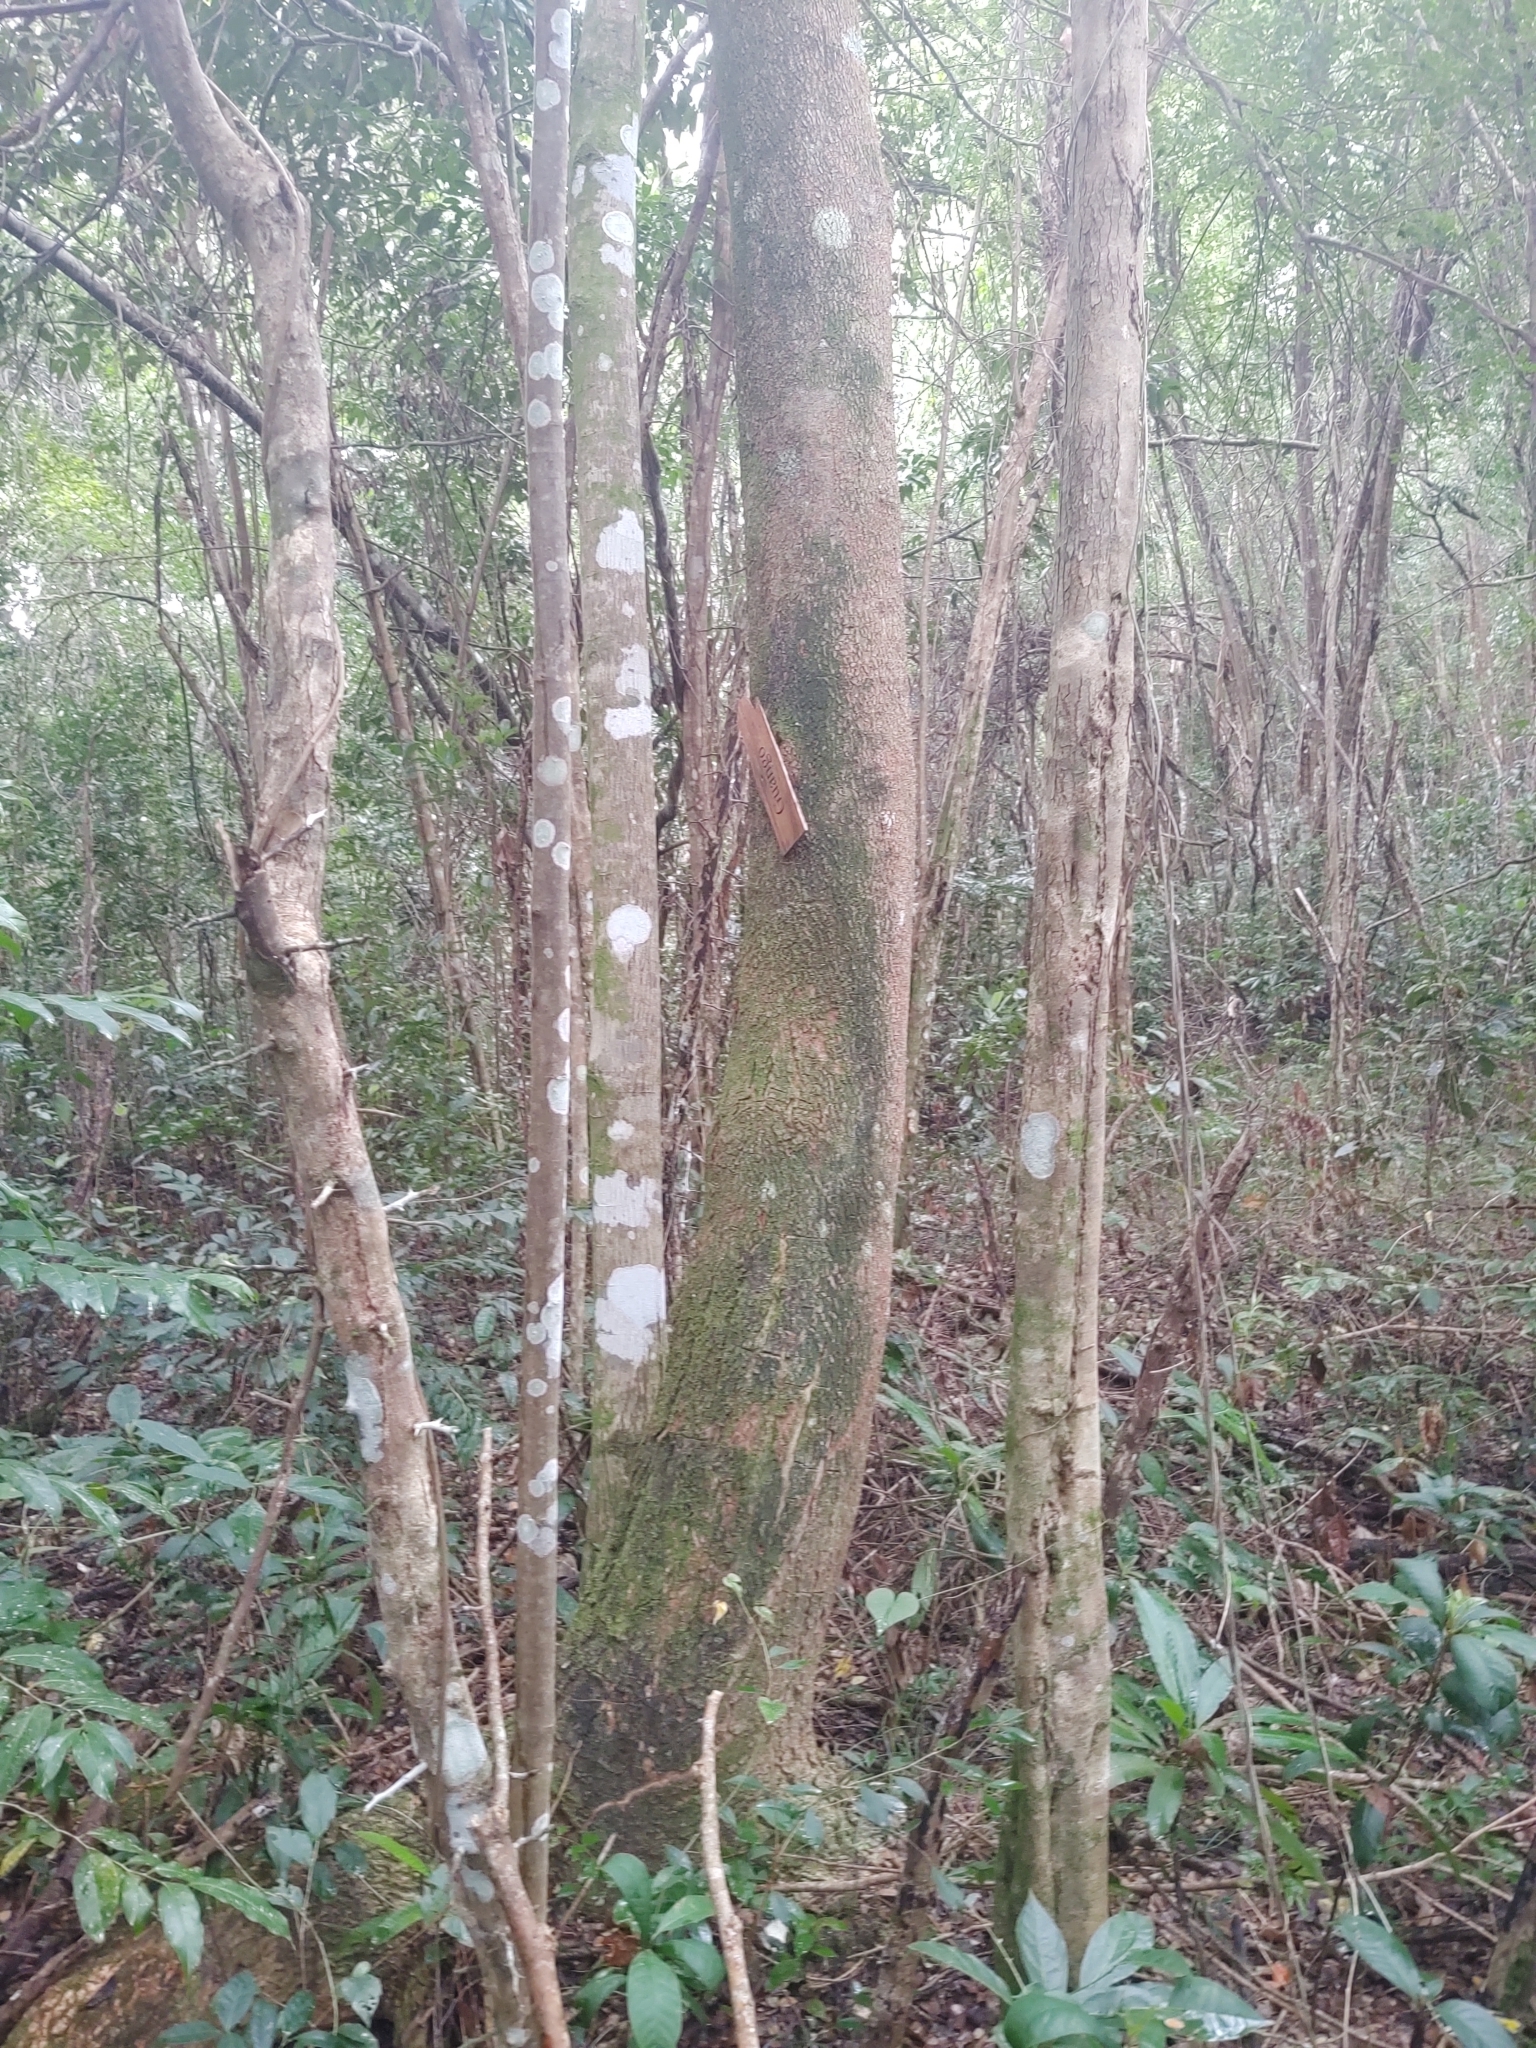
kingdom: Plantae
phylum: Tracheophyta
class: Magnoliopsida
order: Fabales
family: Fabaceae
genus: Samanea
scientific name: Samanea saman
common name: Raintree
